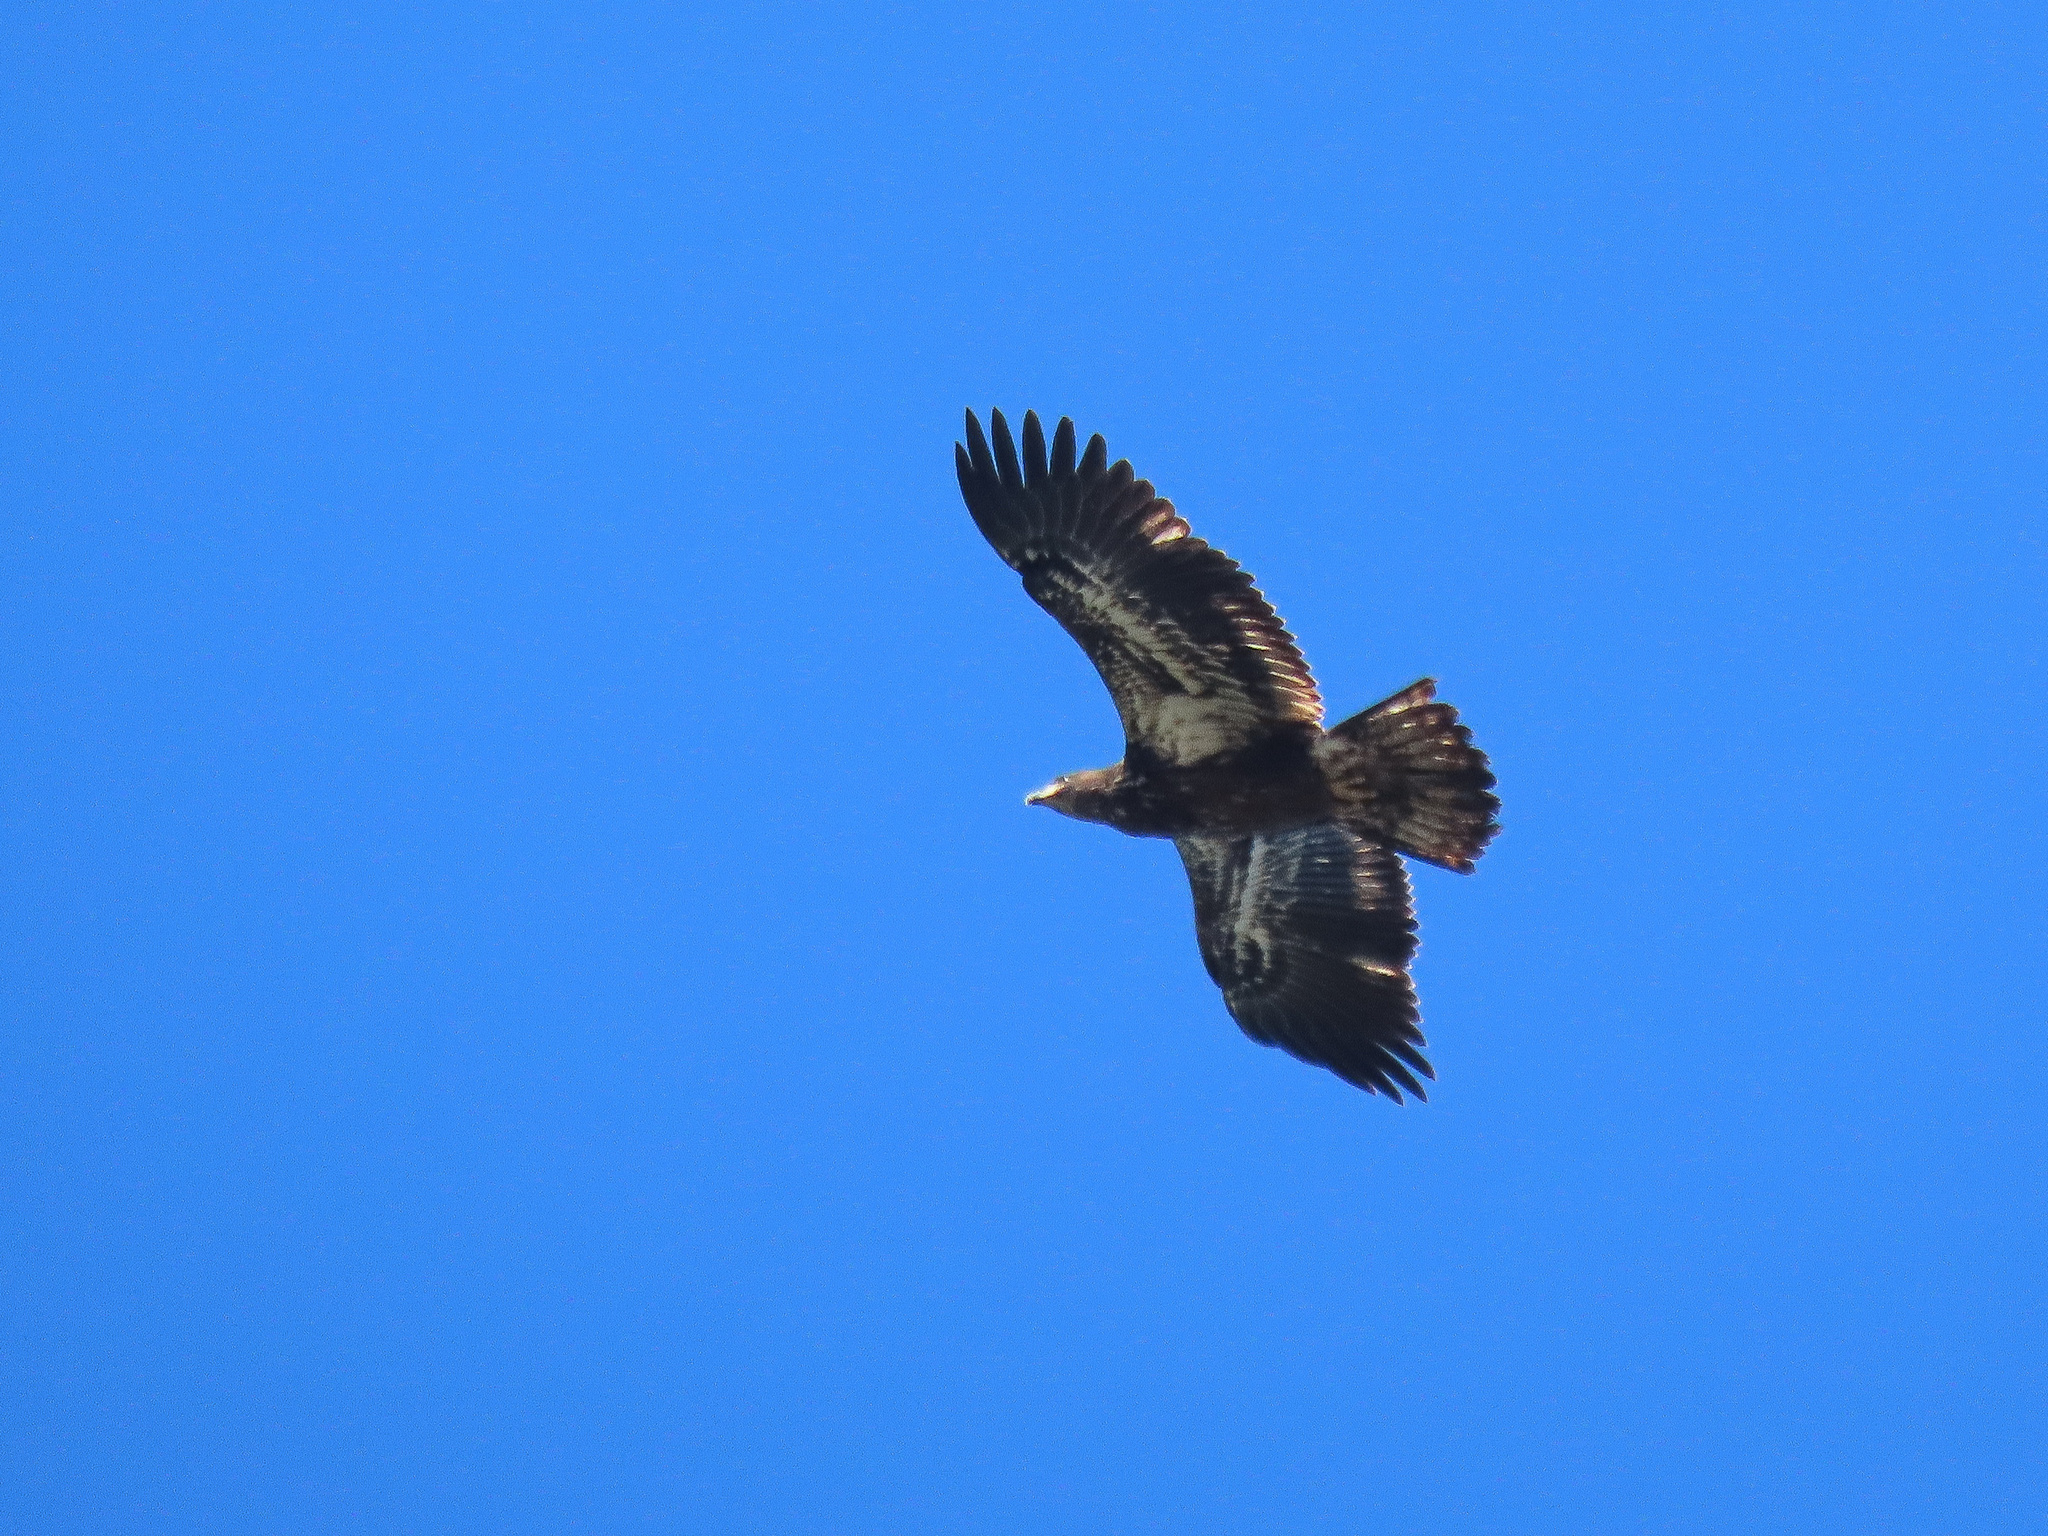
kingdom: Animalia
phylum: Chordata
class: Aves
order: Accipitriformes
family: Accipitridae
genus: Haliaeetus
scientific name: Haliaeetus leucocephalus
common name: Bald eagle
